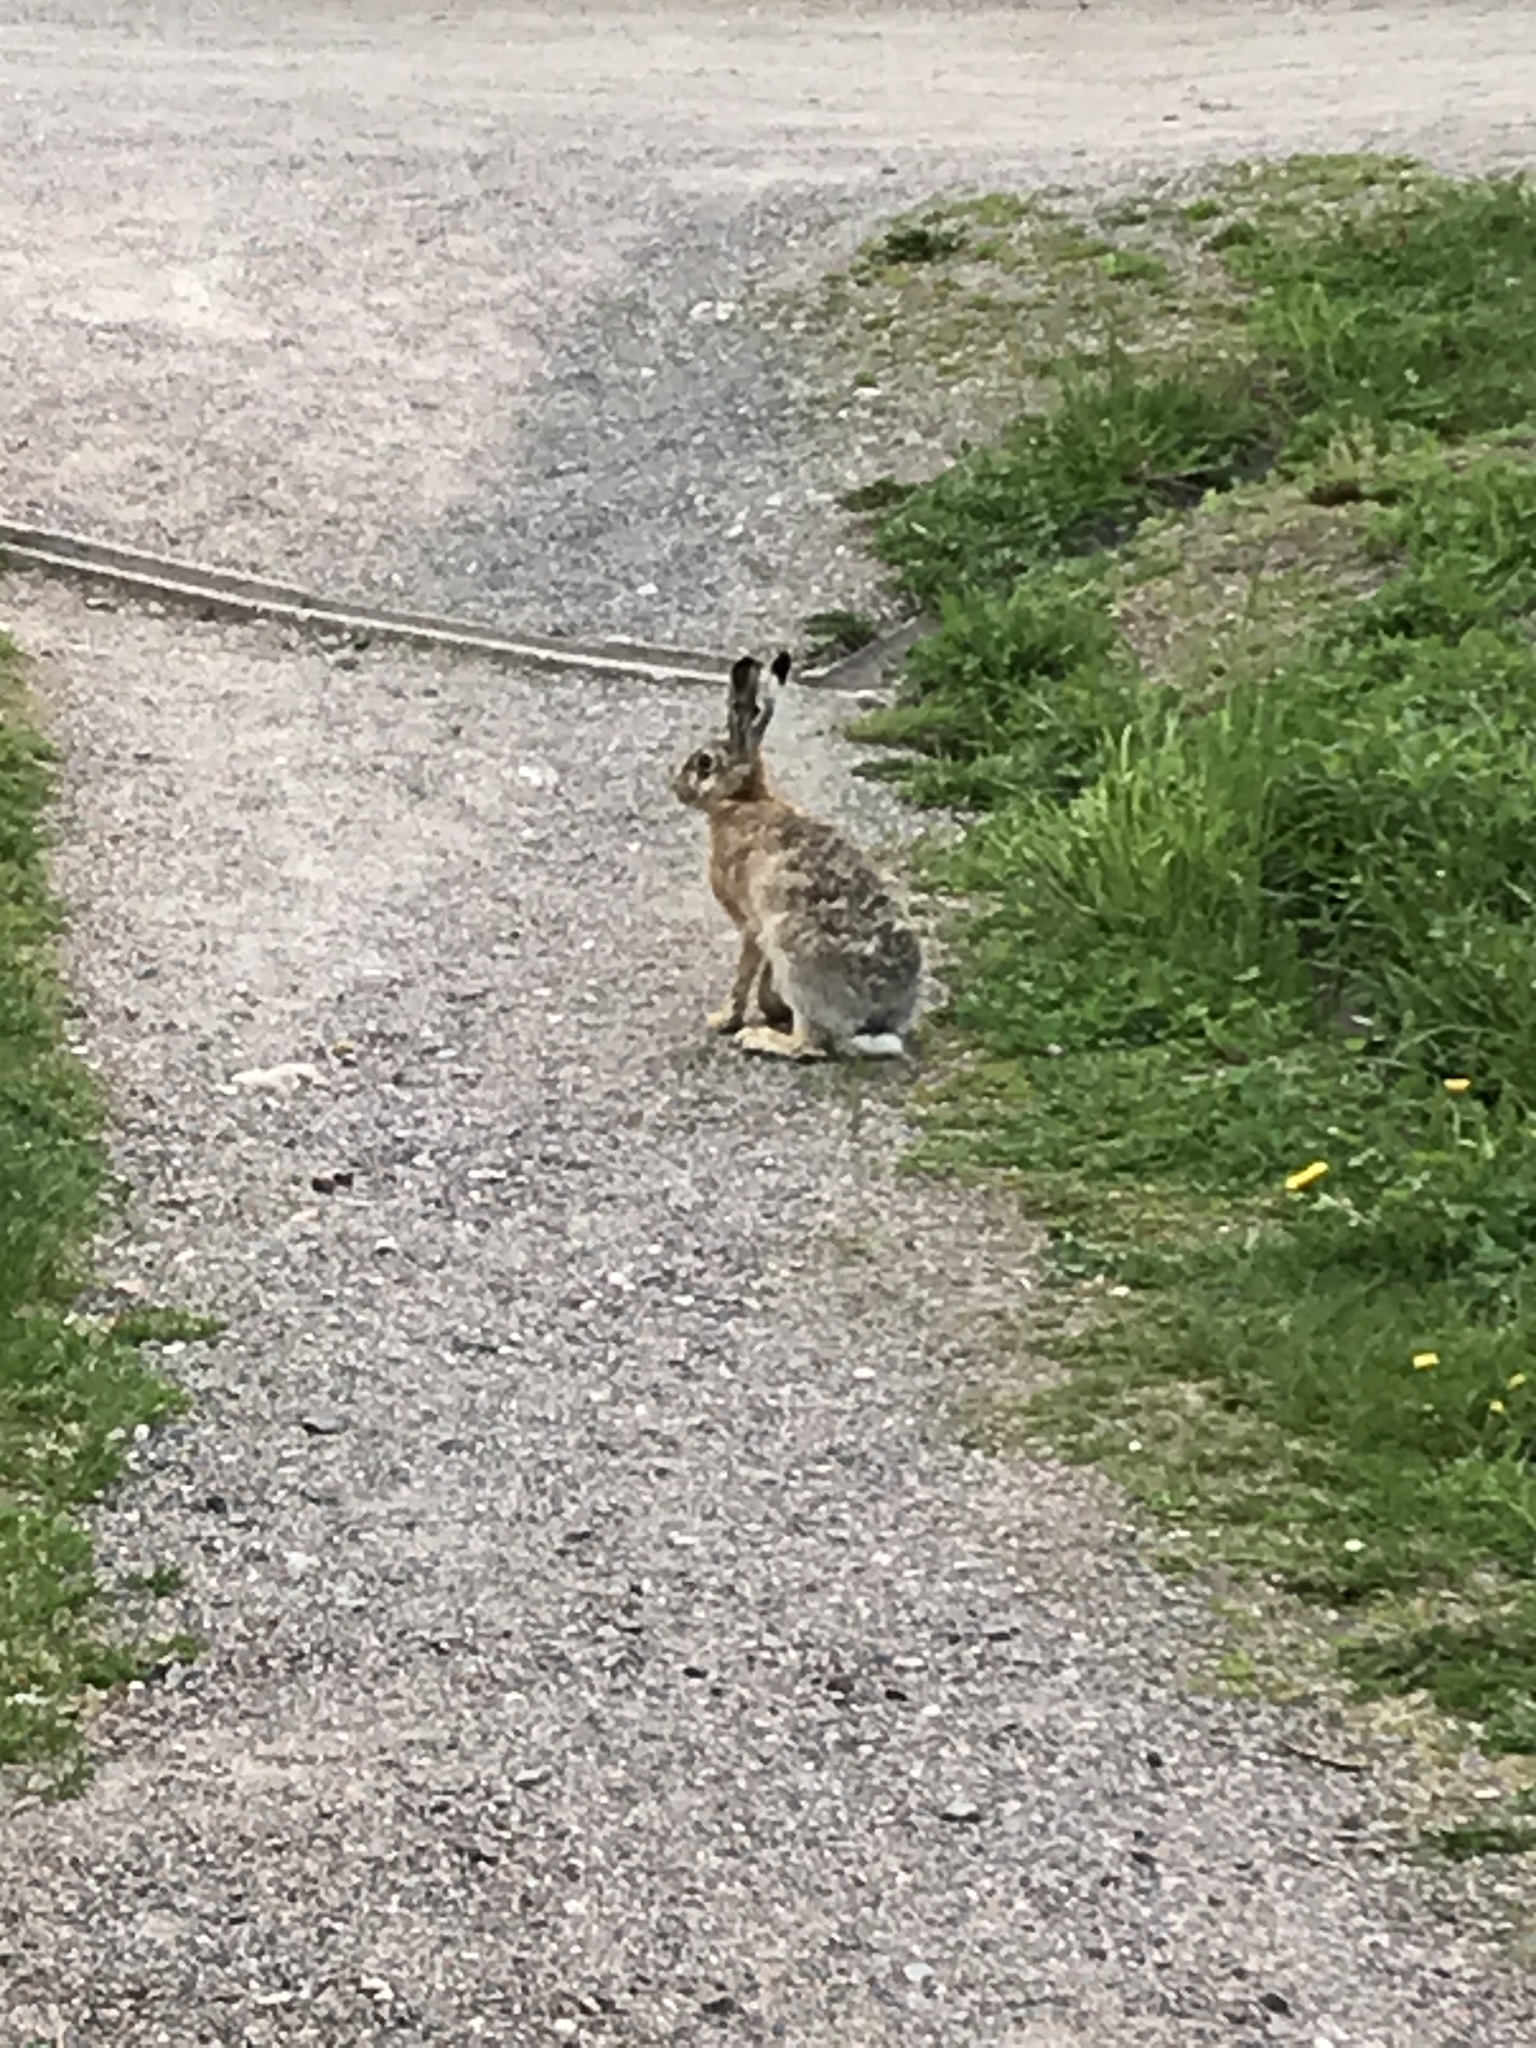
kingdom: Animalia
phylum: Chordata
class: Mammalia
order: Lagomorpha
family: Leporidae
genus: Lepus
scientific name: Lepus europaeus
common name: European hare
